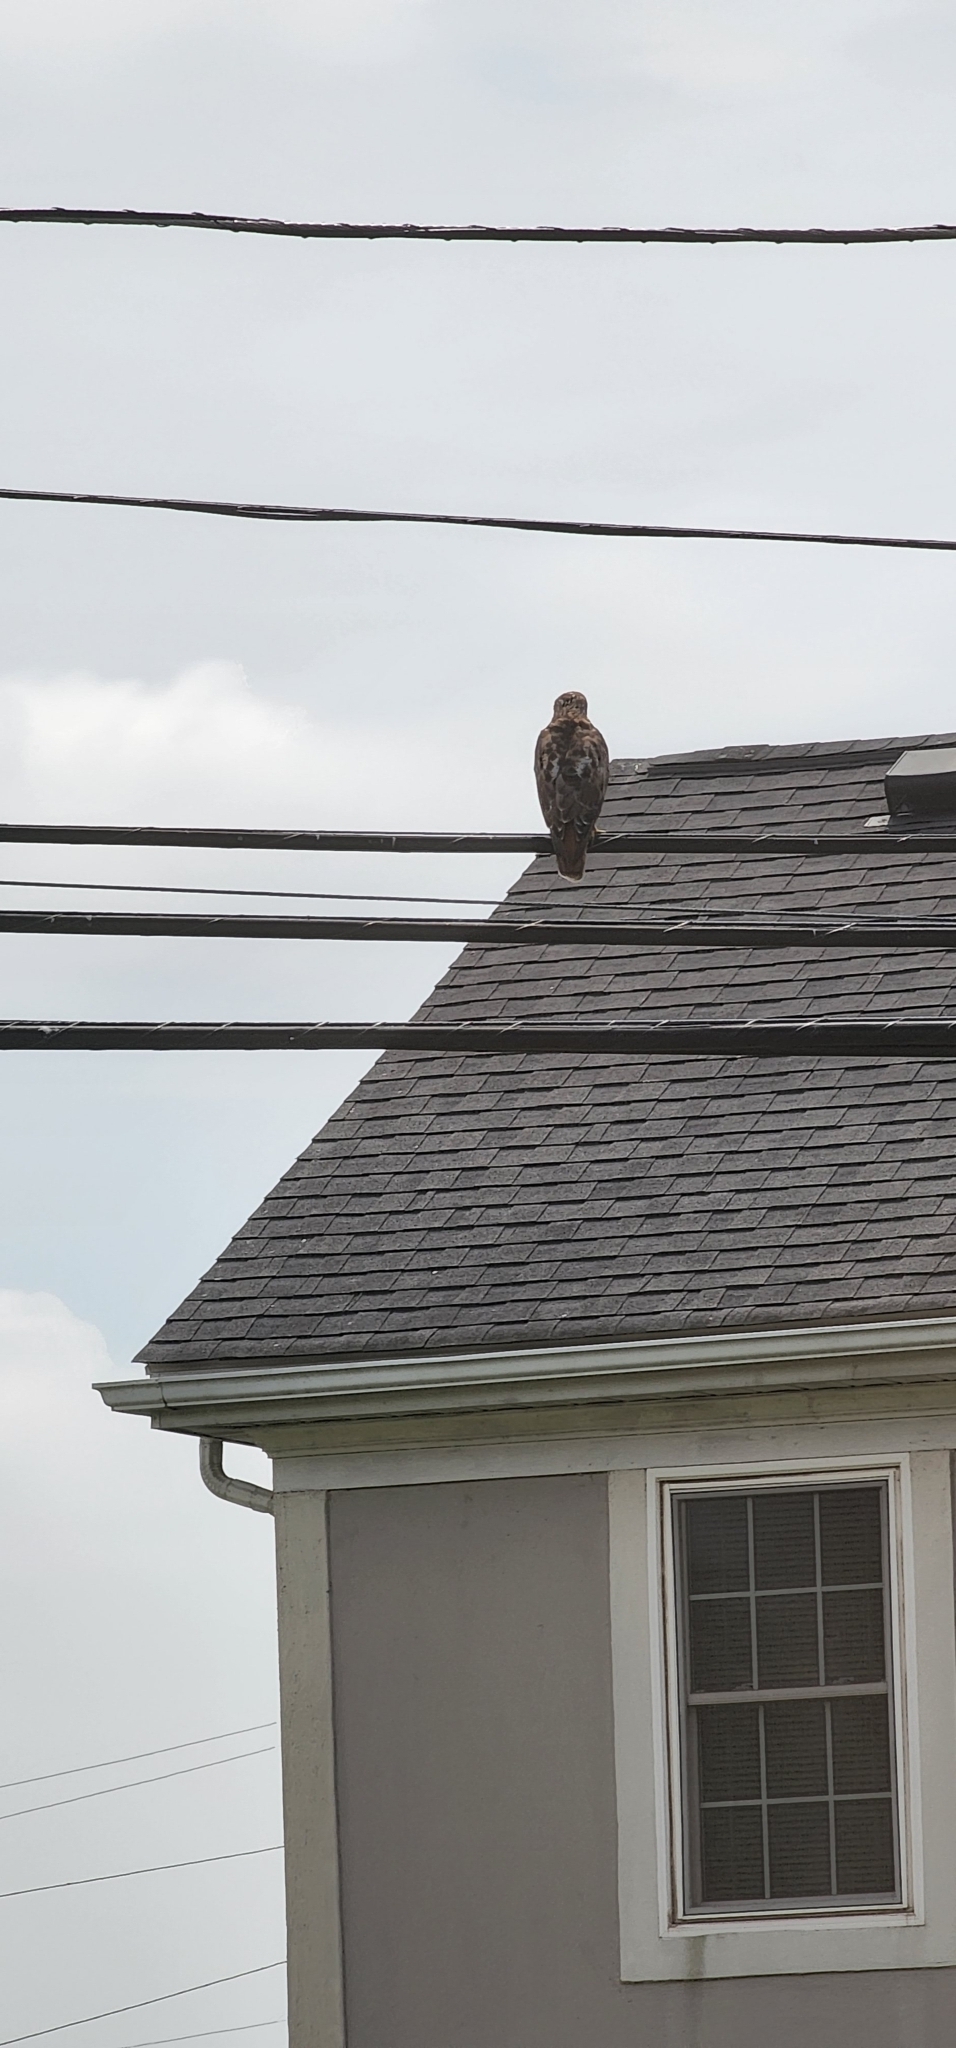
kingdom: Animalia
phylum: Chordata
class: Aves
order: Accipitriformes
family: Accipitridae
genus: Buteo
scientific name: Buteo jamaicensis
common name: Red-tailed hawk
